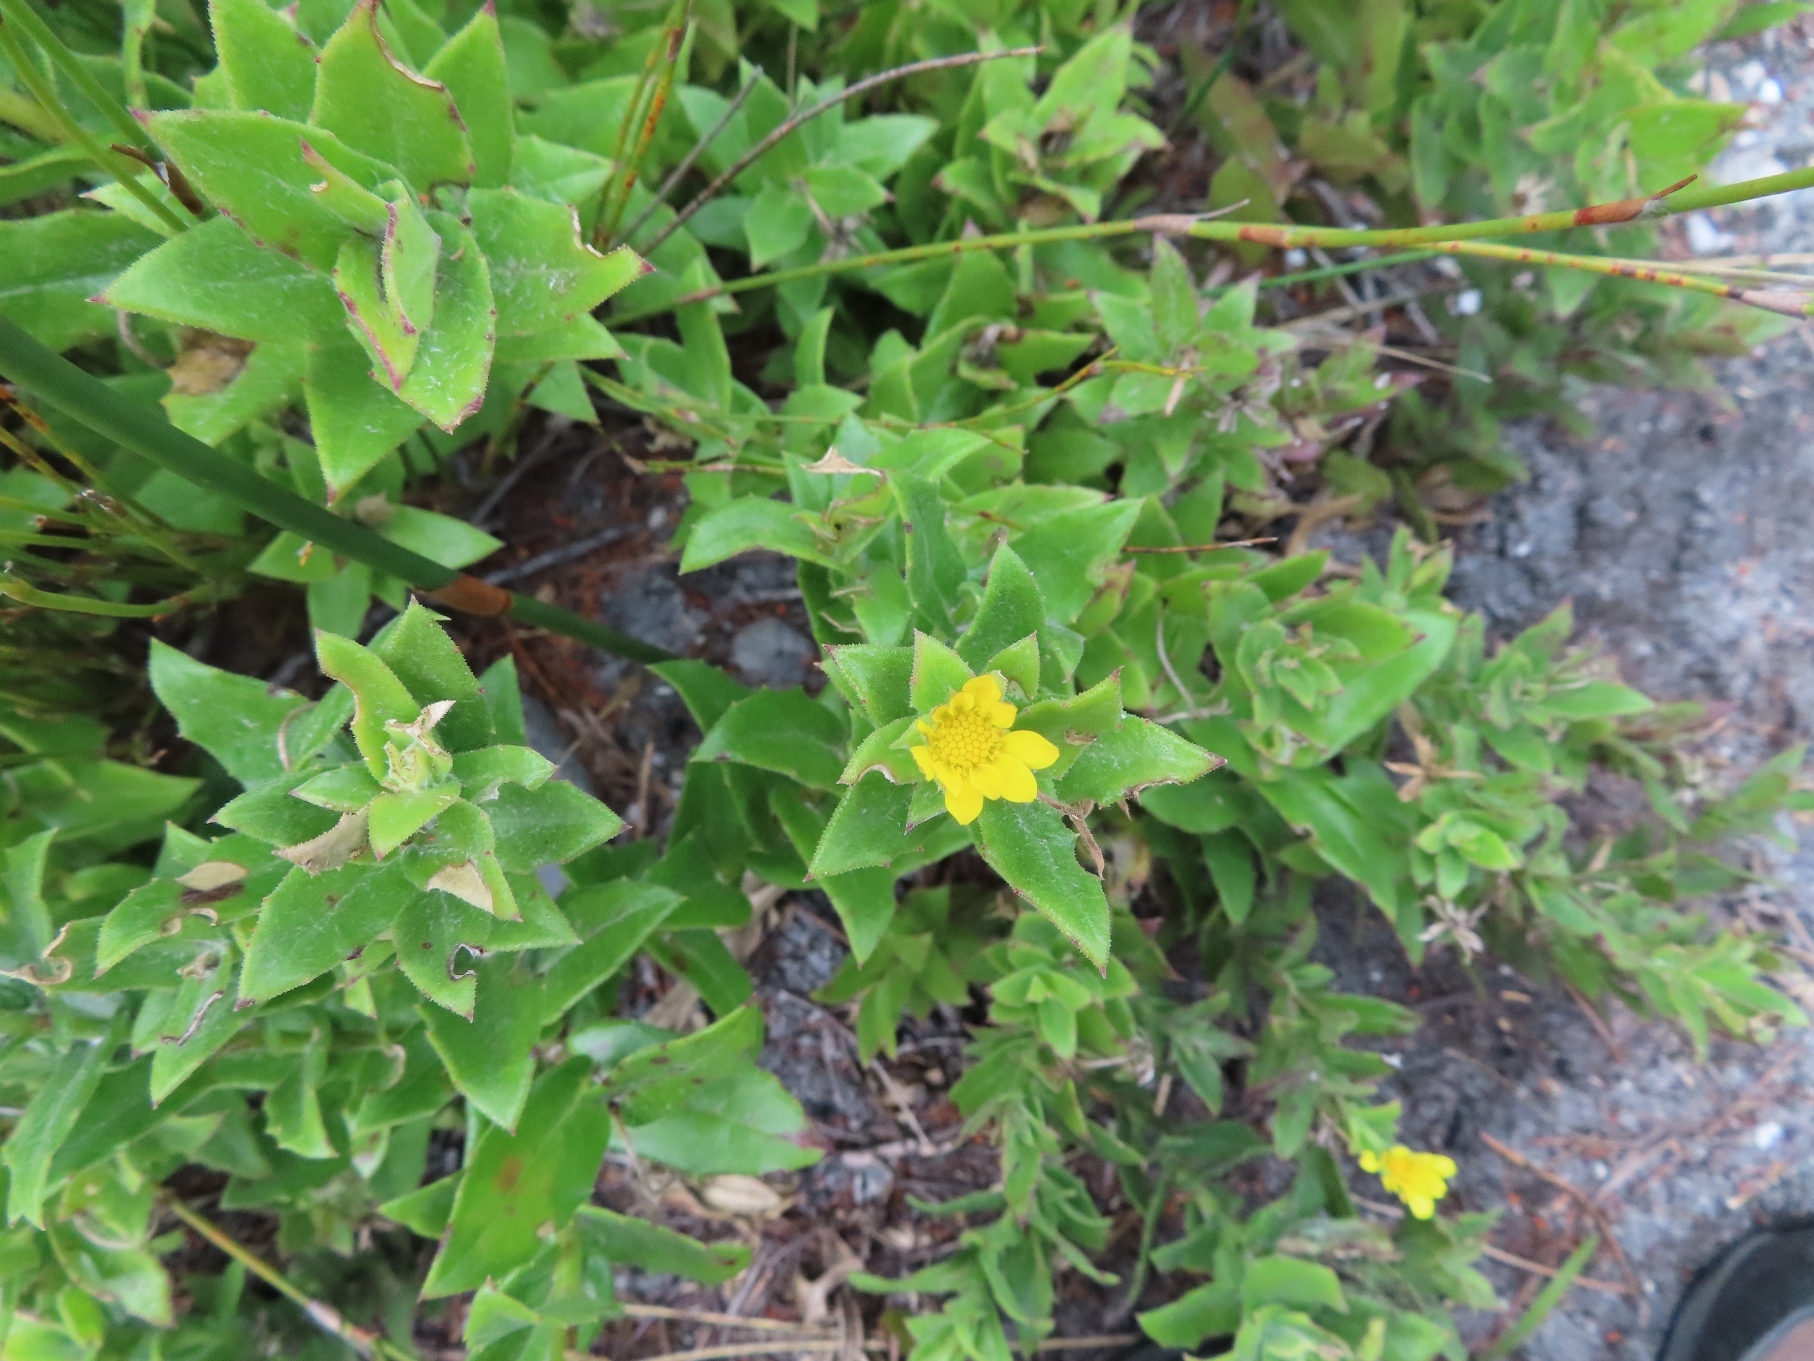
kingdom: Plantae
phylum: Tracheophyta
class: Magnoliopsida
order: Asterales
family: Asteraceae
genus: Osteospermum
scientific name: Osteospermum ilicifolium
